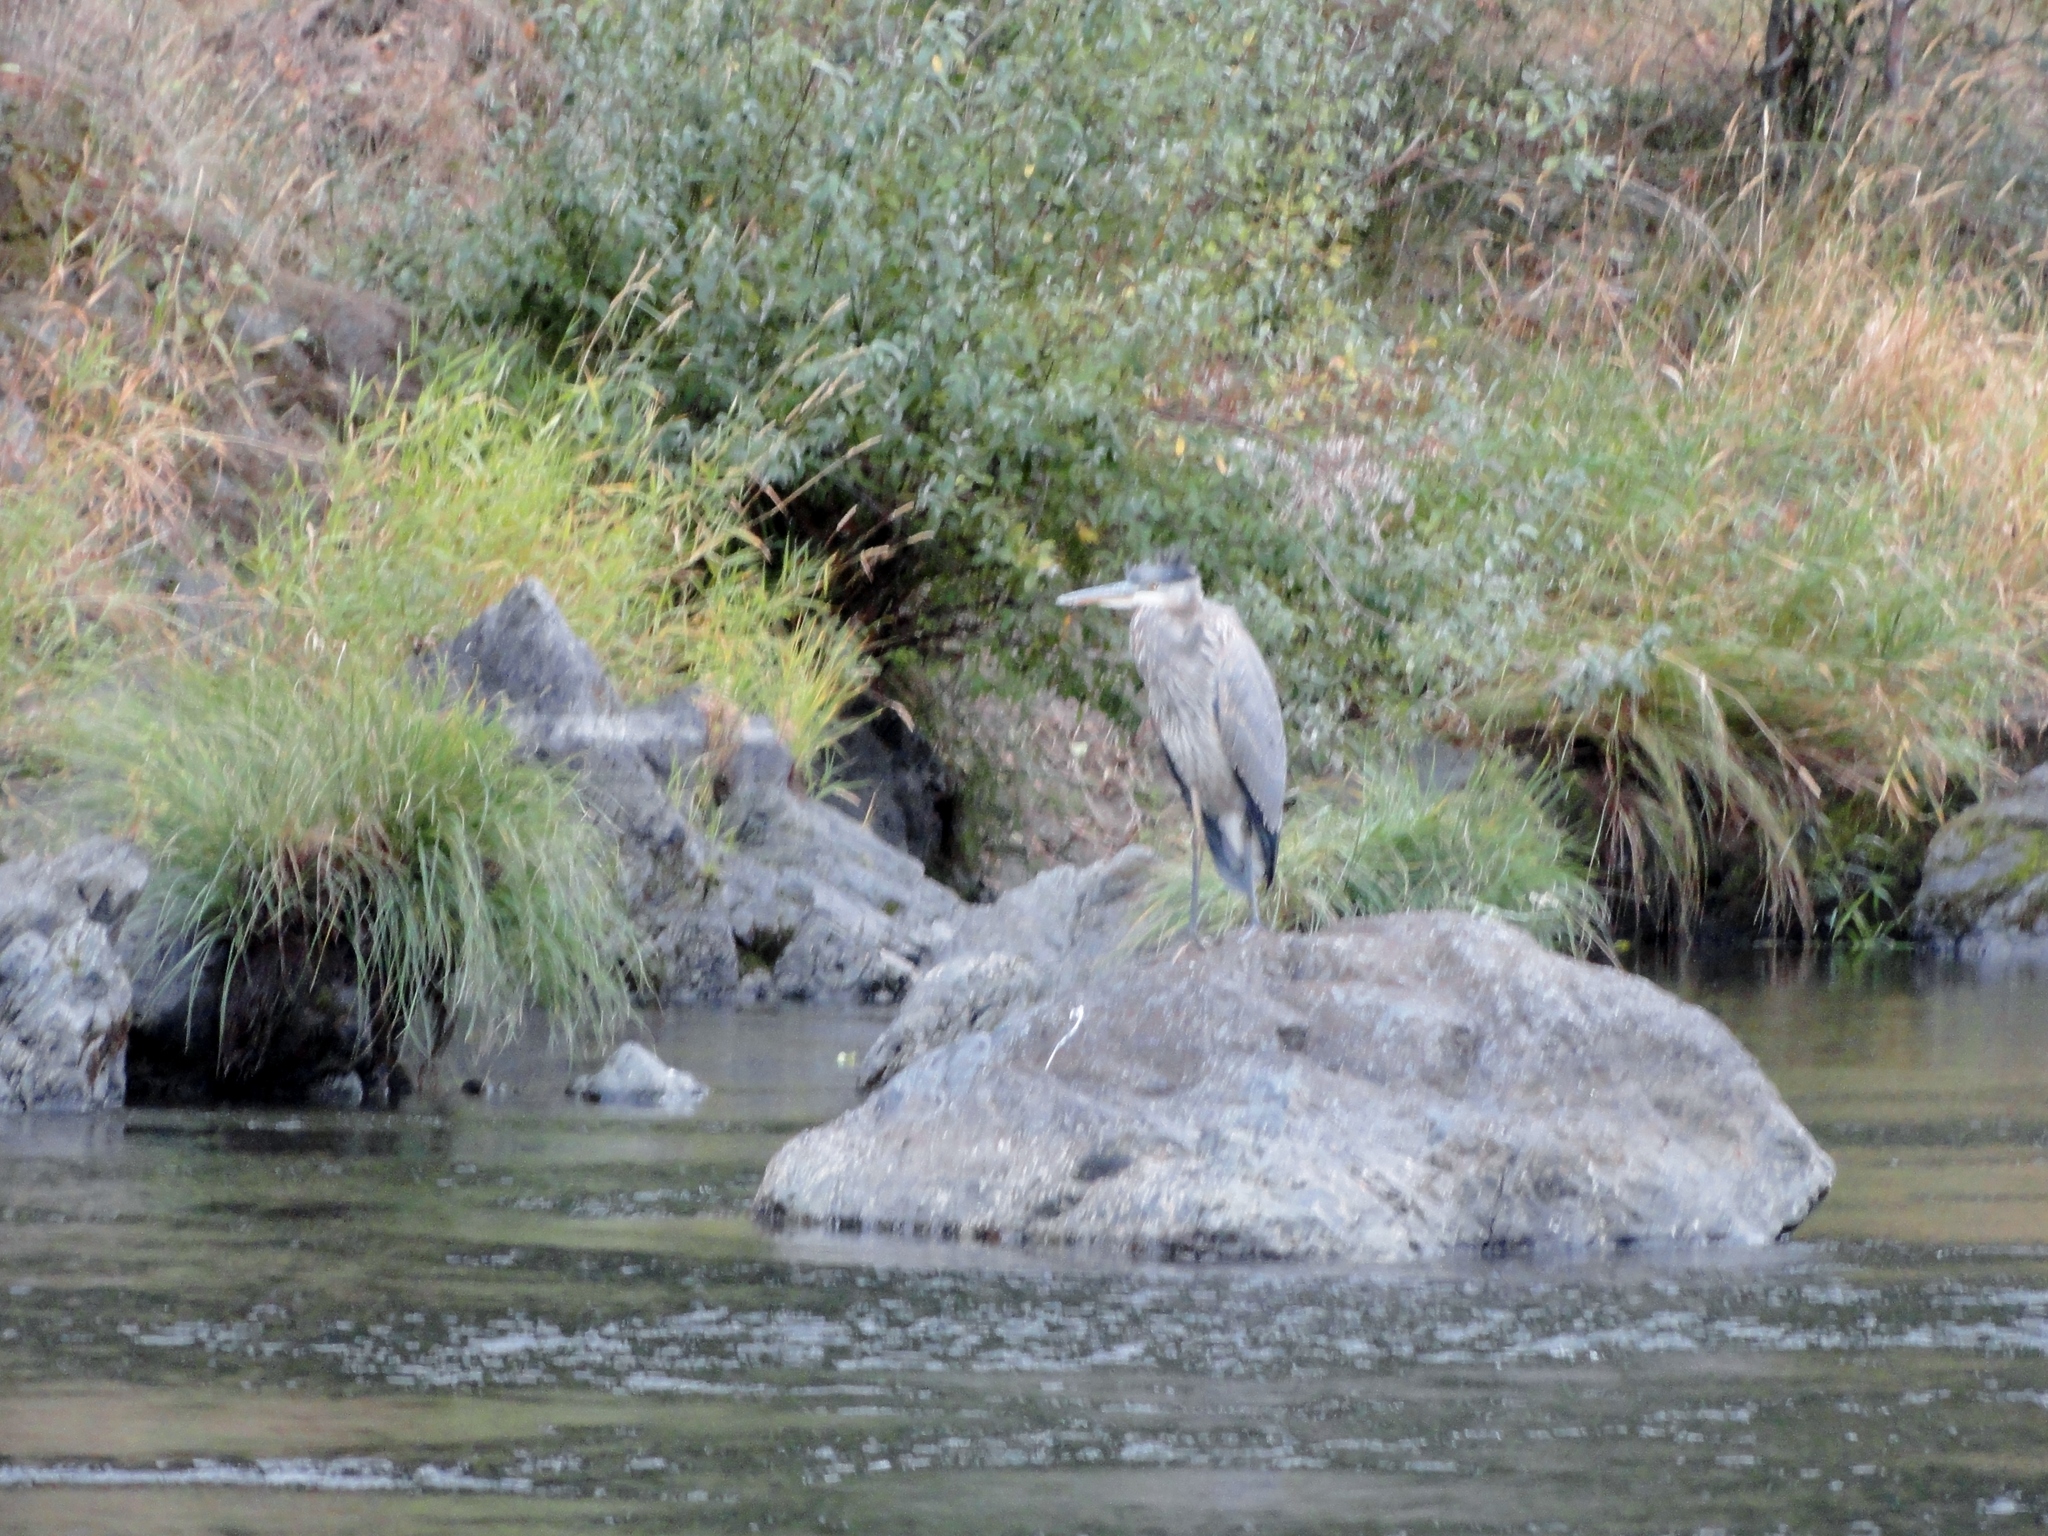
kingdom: Animalia
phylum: Chordata
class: Aves
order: Pelecaniformes
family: Ardeidae
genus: Ardea
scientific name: Ardea herodias
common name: Great blue heron
